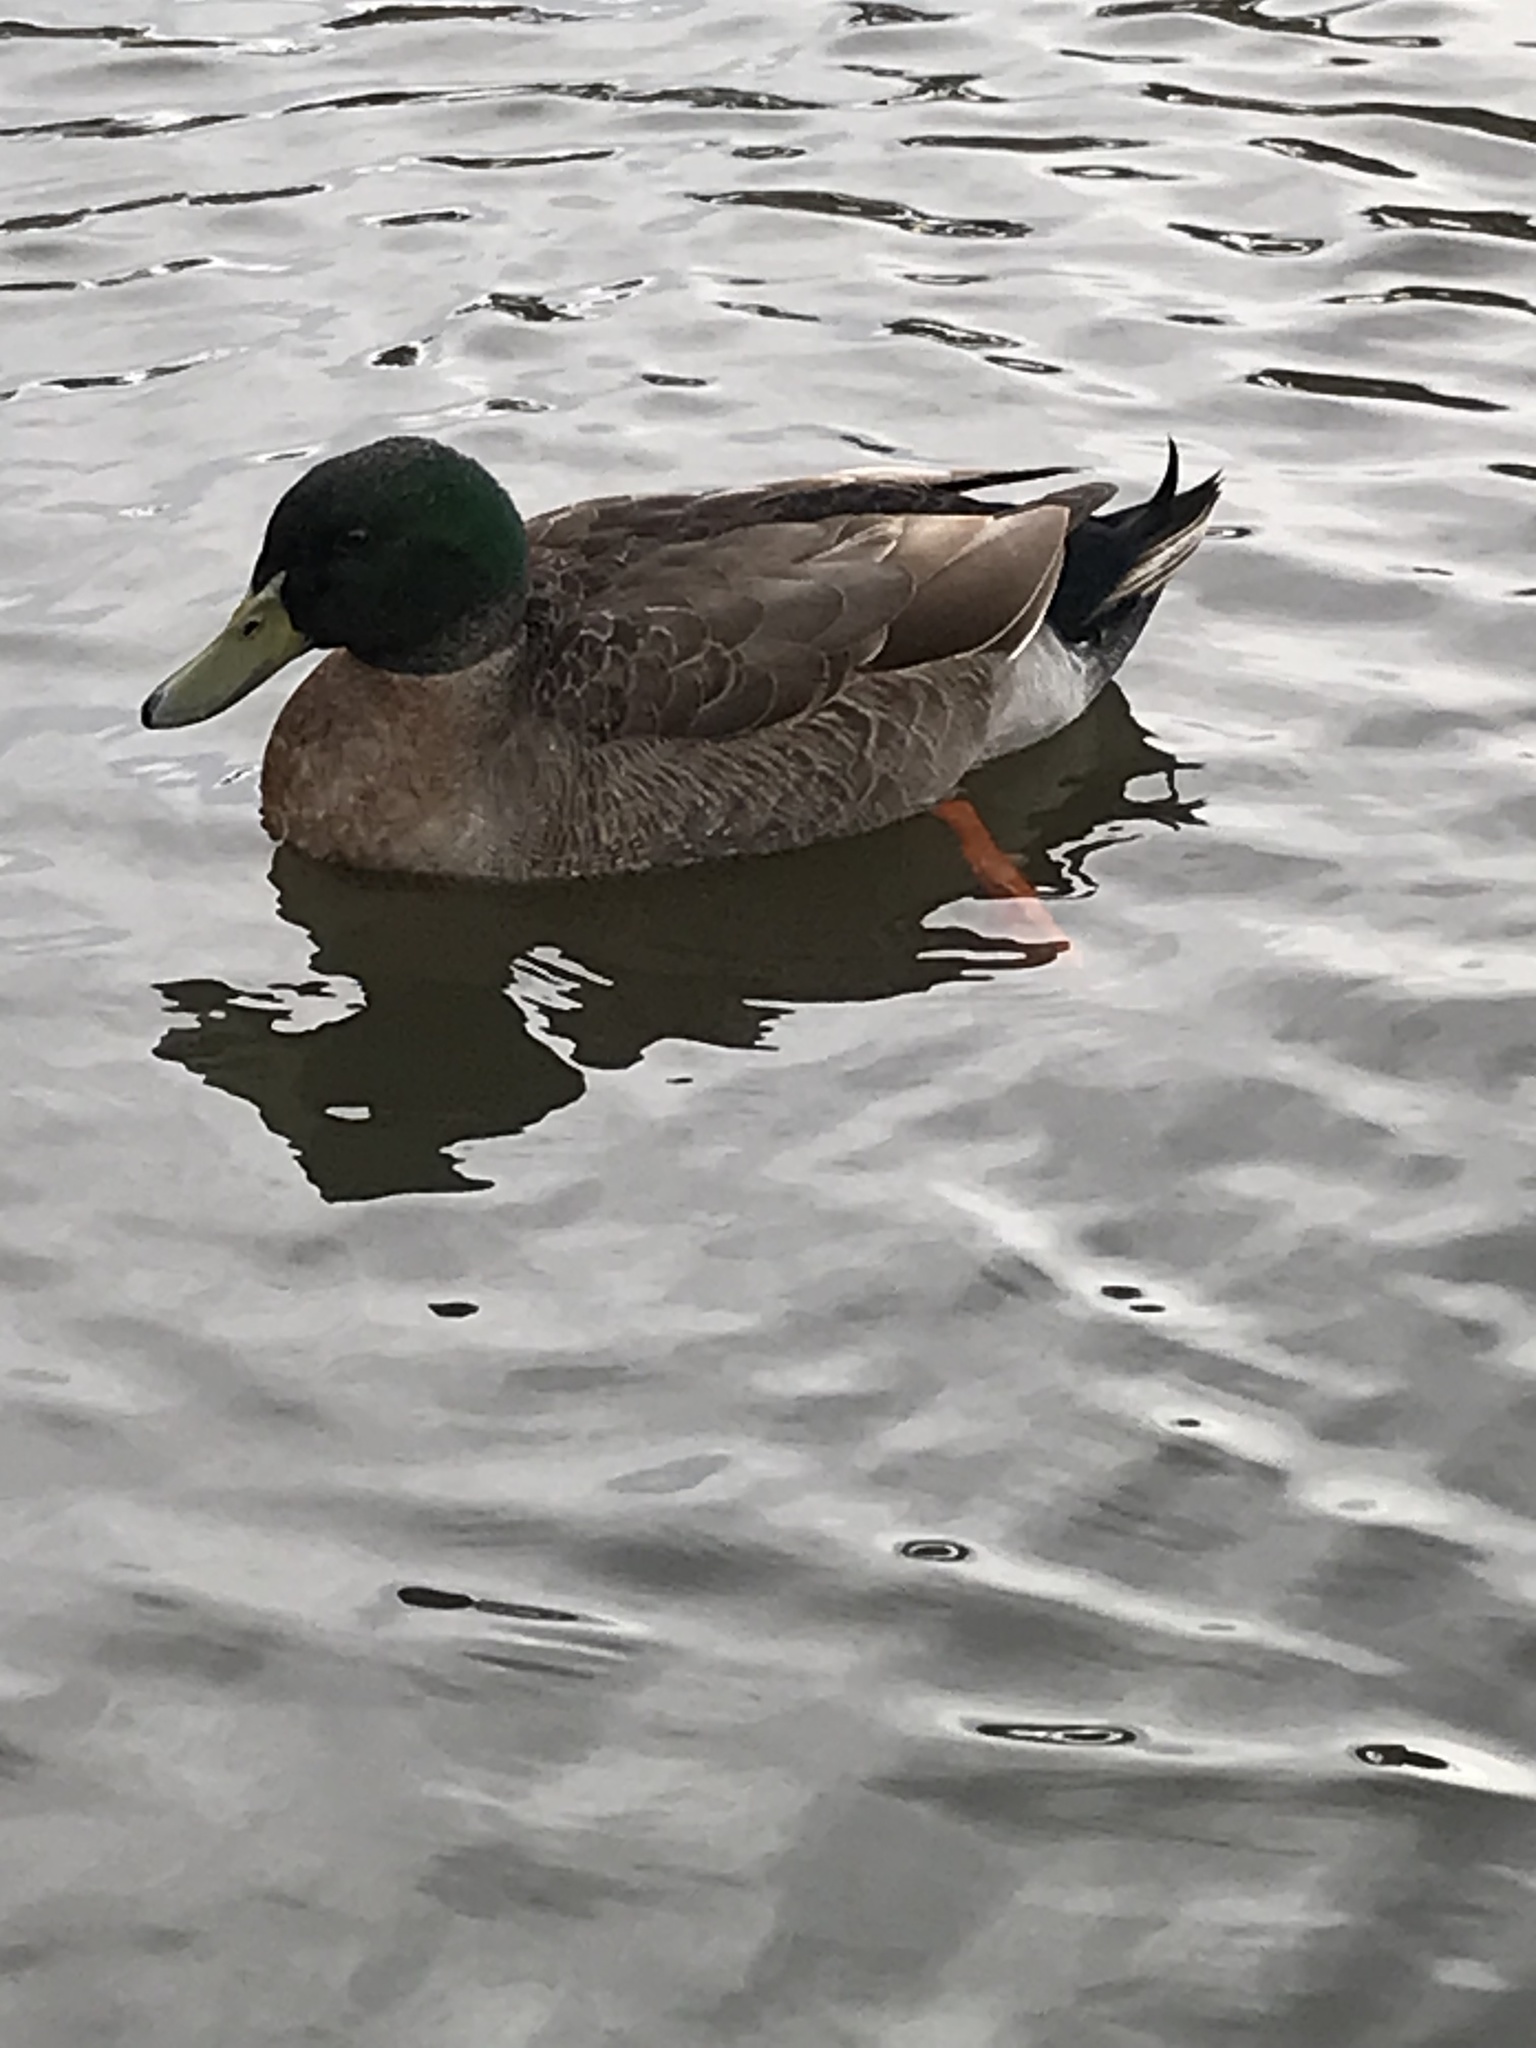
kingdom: Animalia
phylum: Chordata
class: Aves
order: Anseriformes
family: Anatidae
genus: Anas
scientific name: Anas platyrhynchos
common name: Mallard
